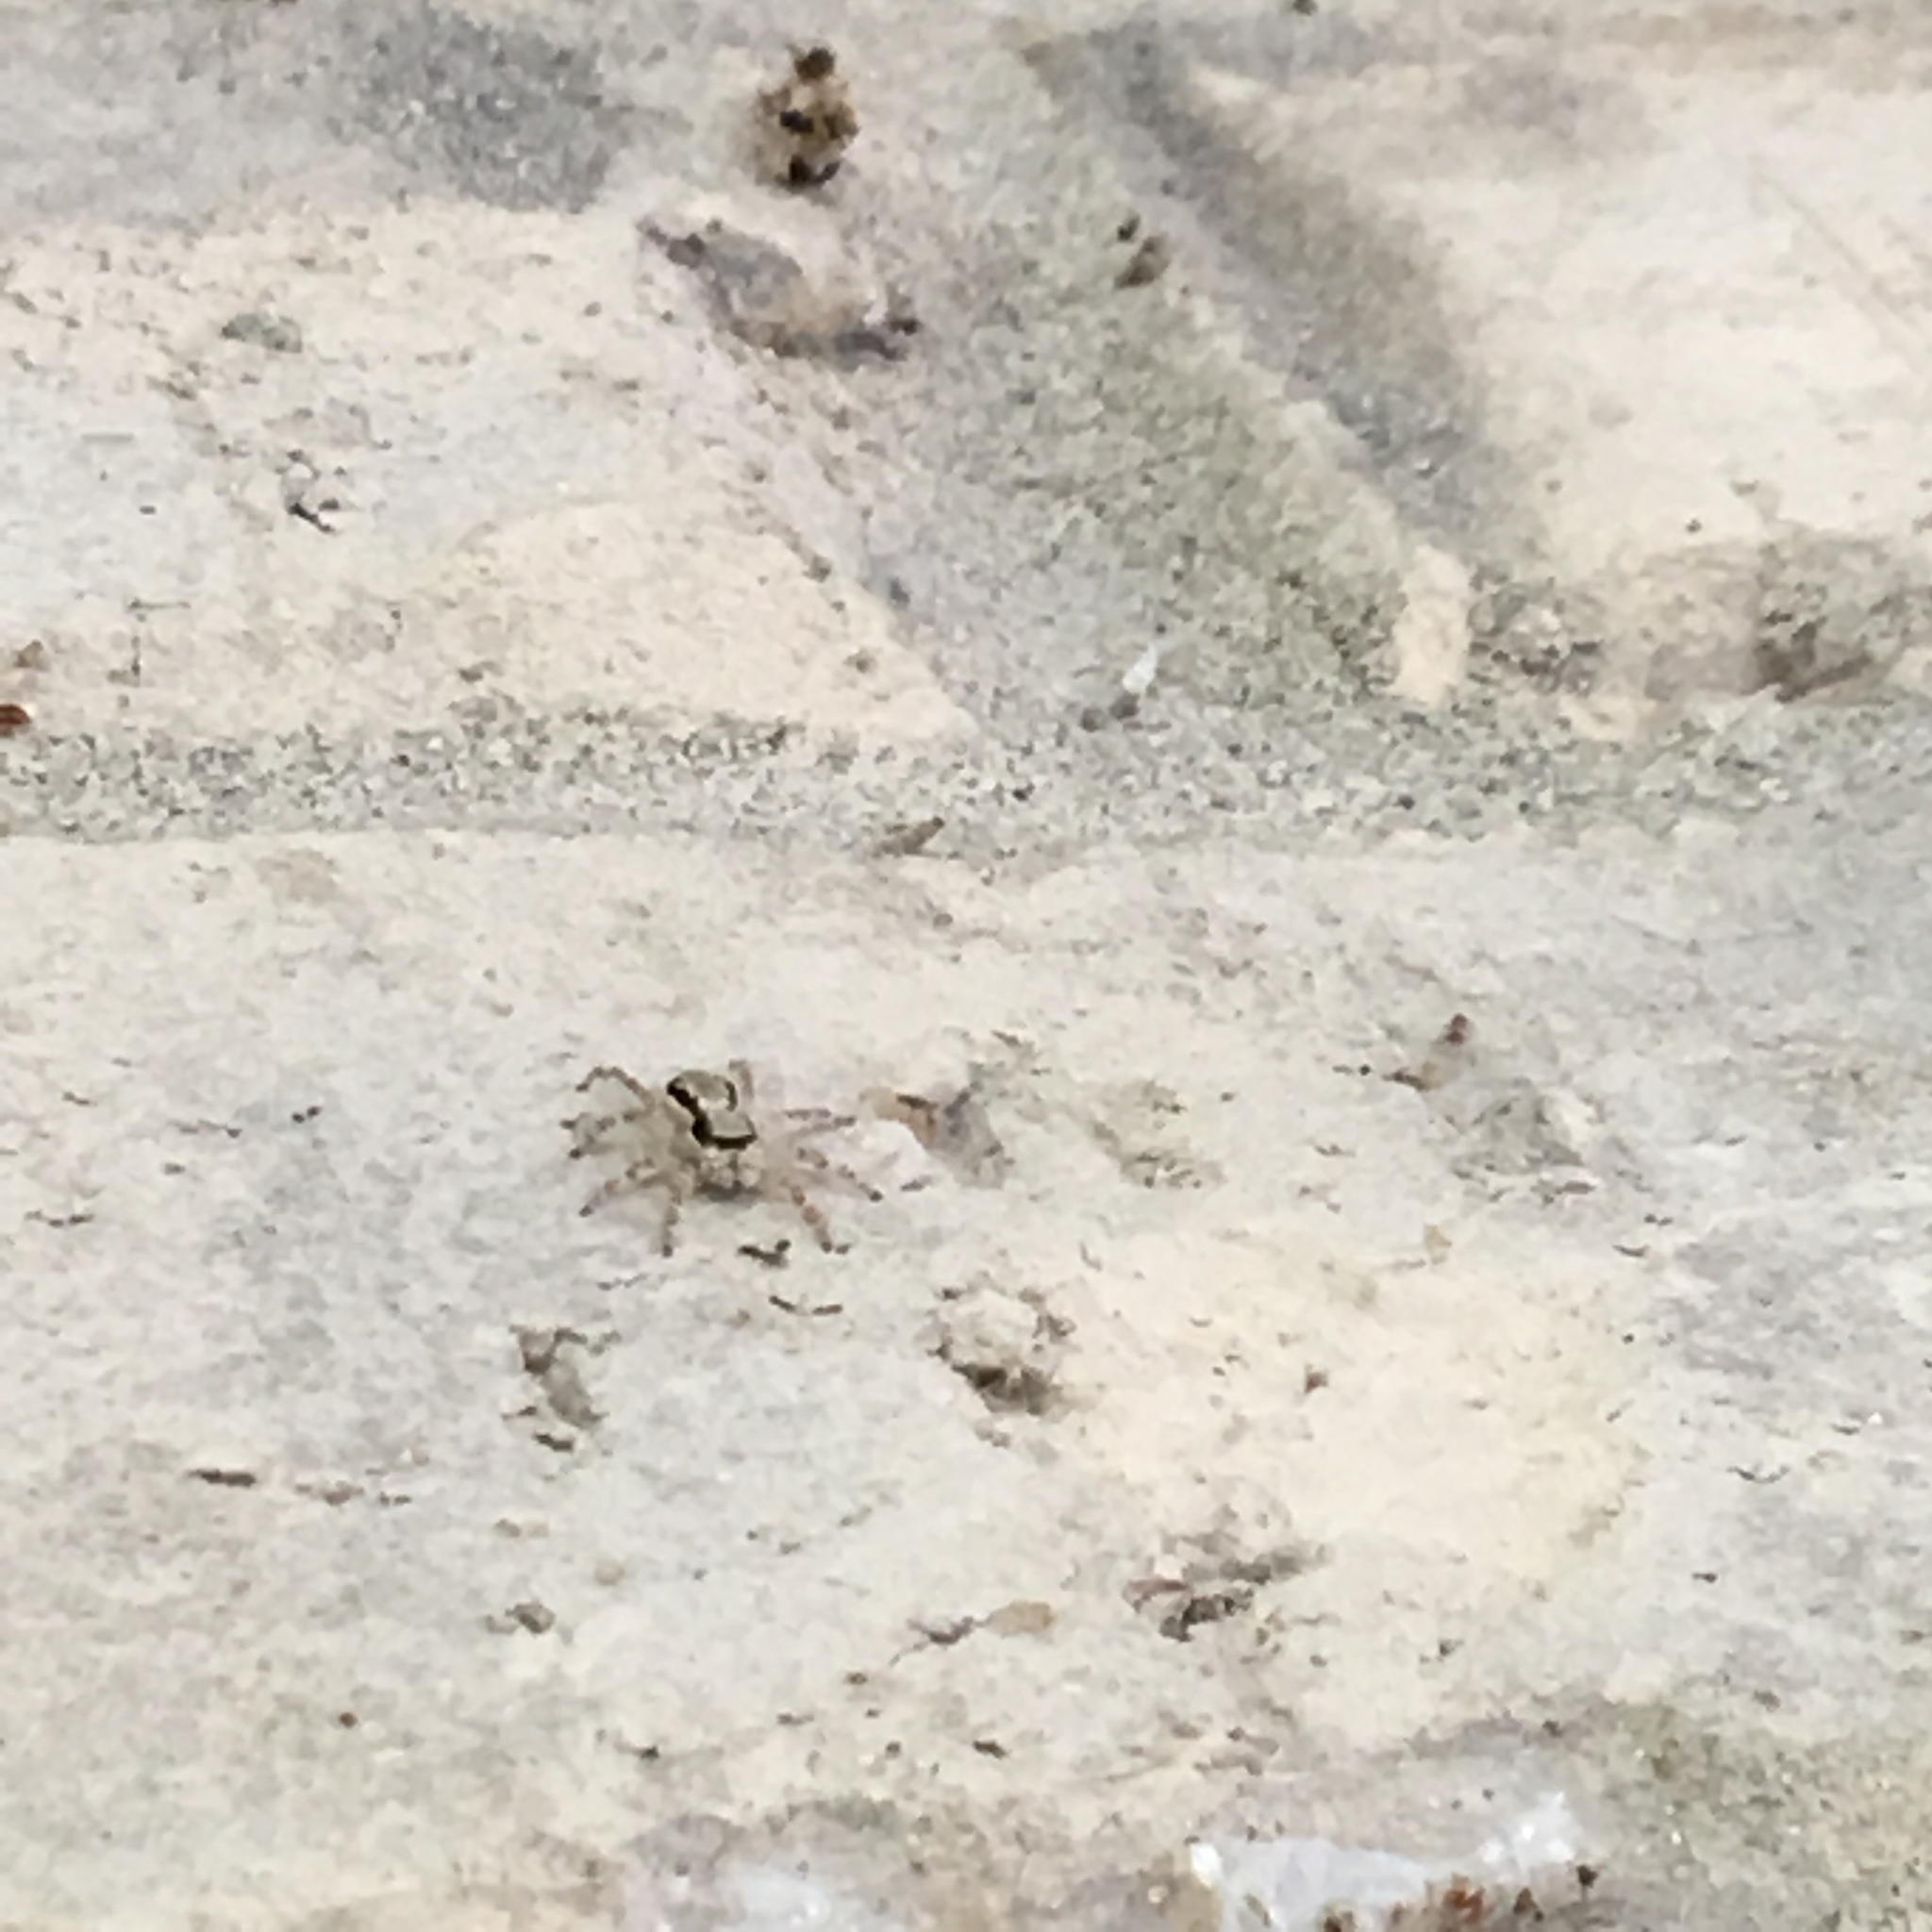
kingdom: Animalia
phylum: Arthropoda
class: Arachnida
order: Araneae
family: Salticidae
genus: Menemerus
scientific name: Menemerus bivittatus
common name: Gray wall jumper
